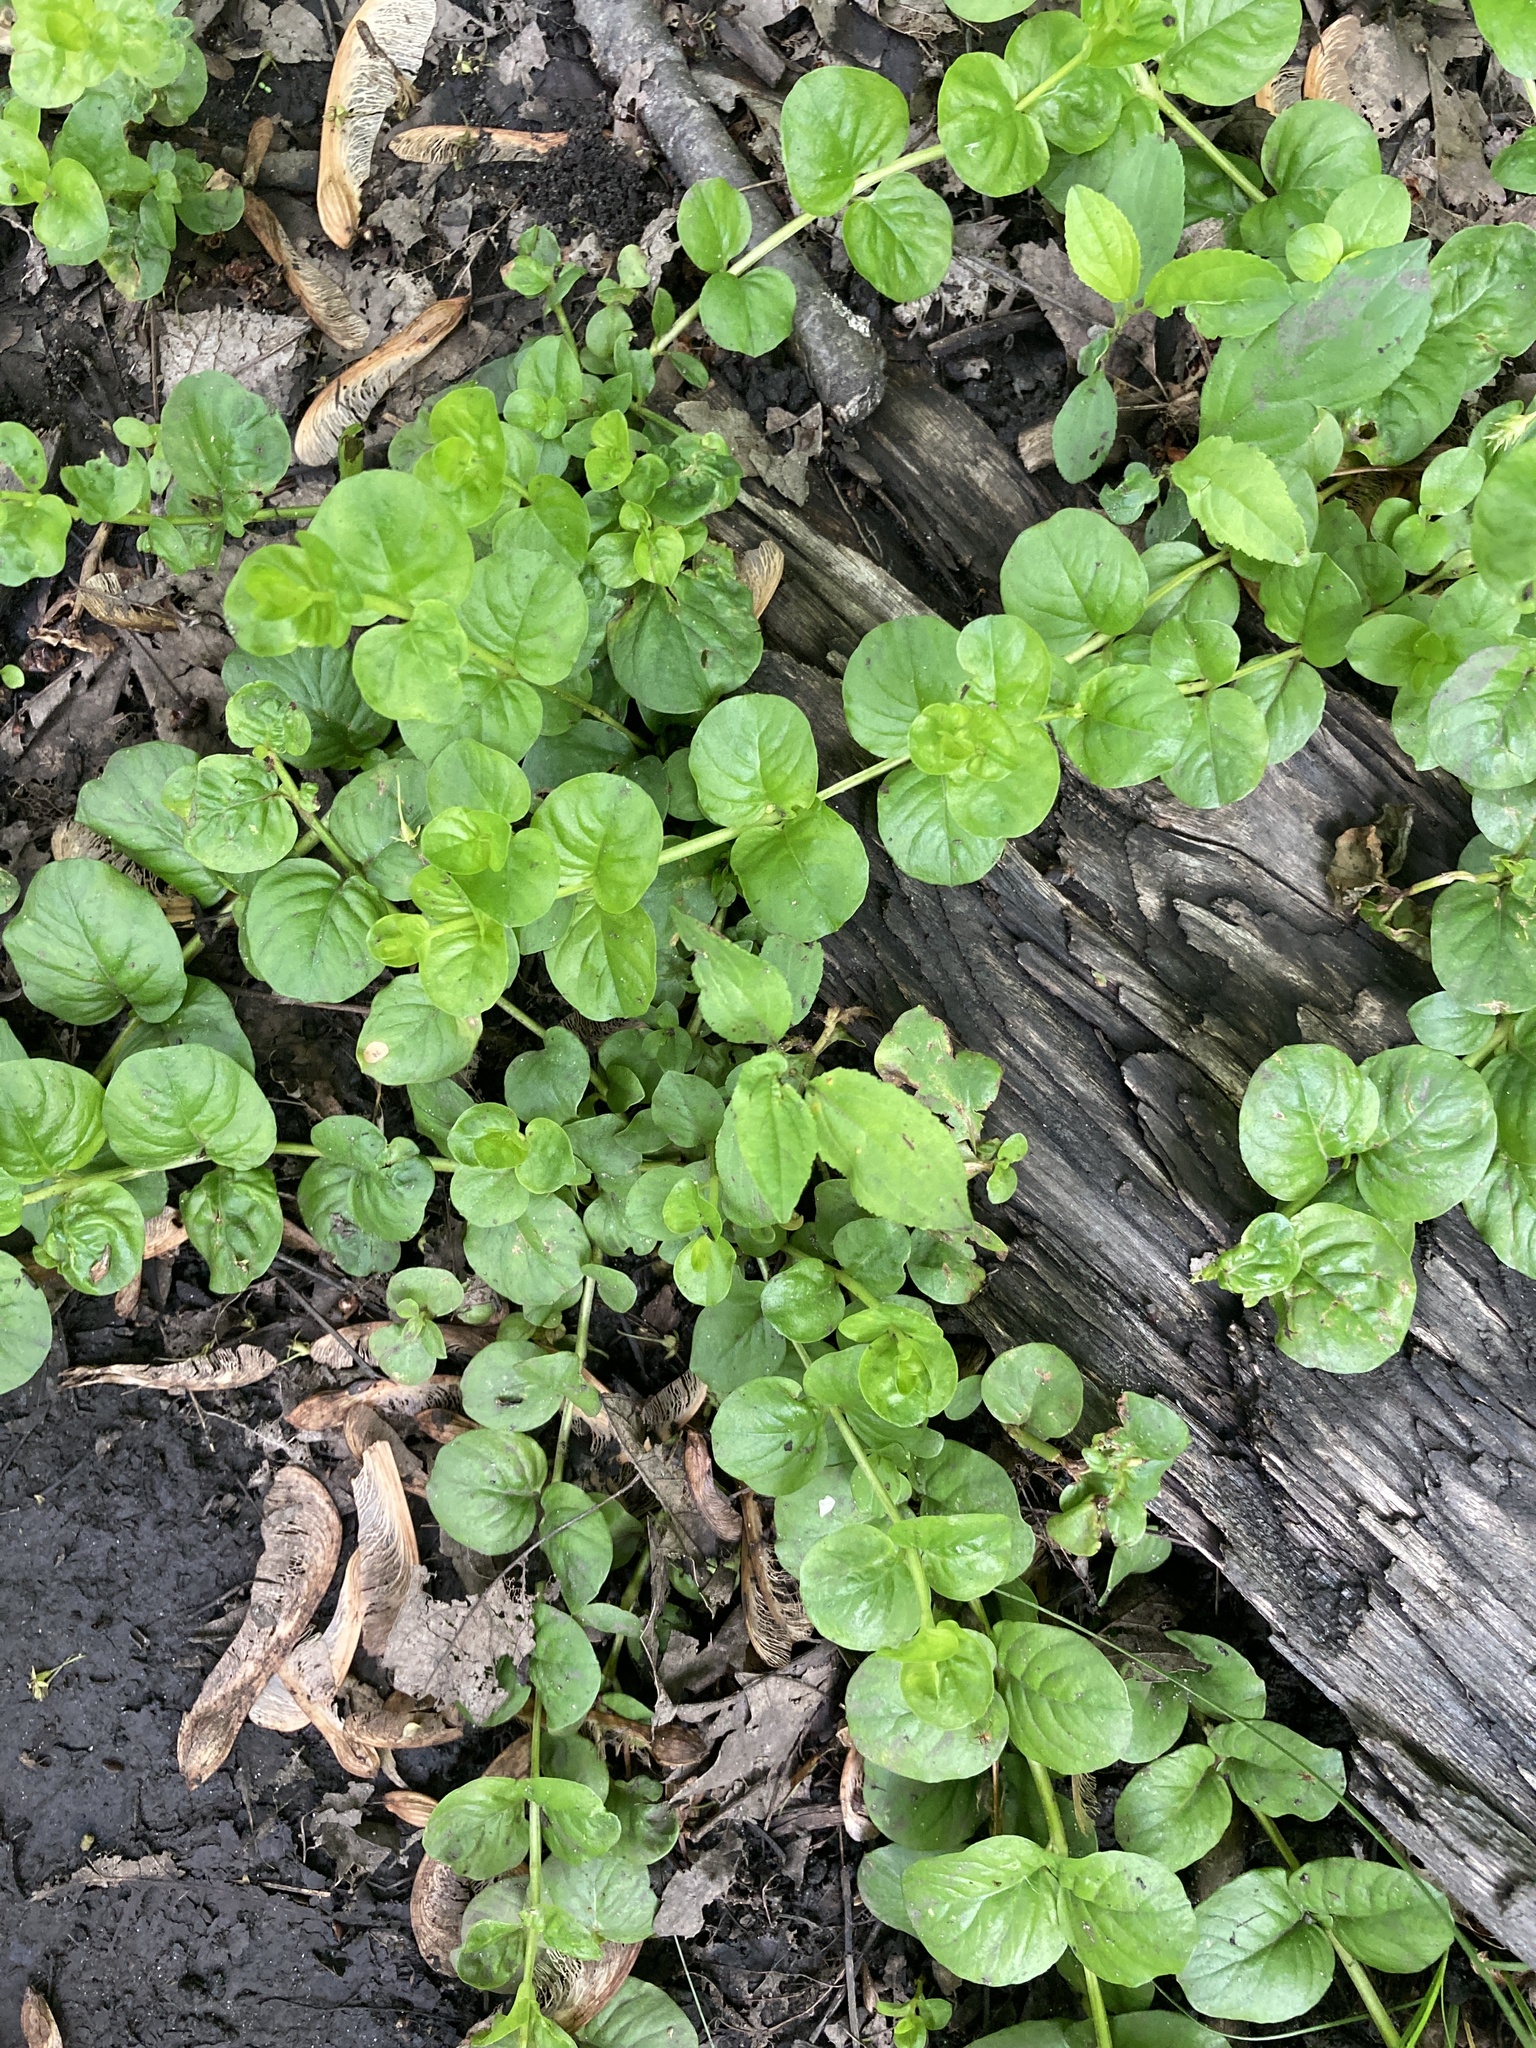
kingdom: Plantae
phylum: Tracheophyta
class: Magnoliopsida
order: Ericales
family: Primulaceae
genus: Lysimachia
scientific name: Lysimachia nummularia
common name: Moneywort
